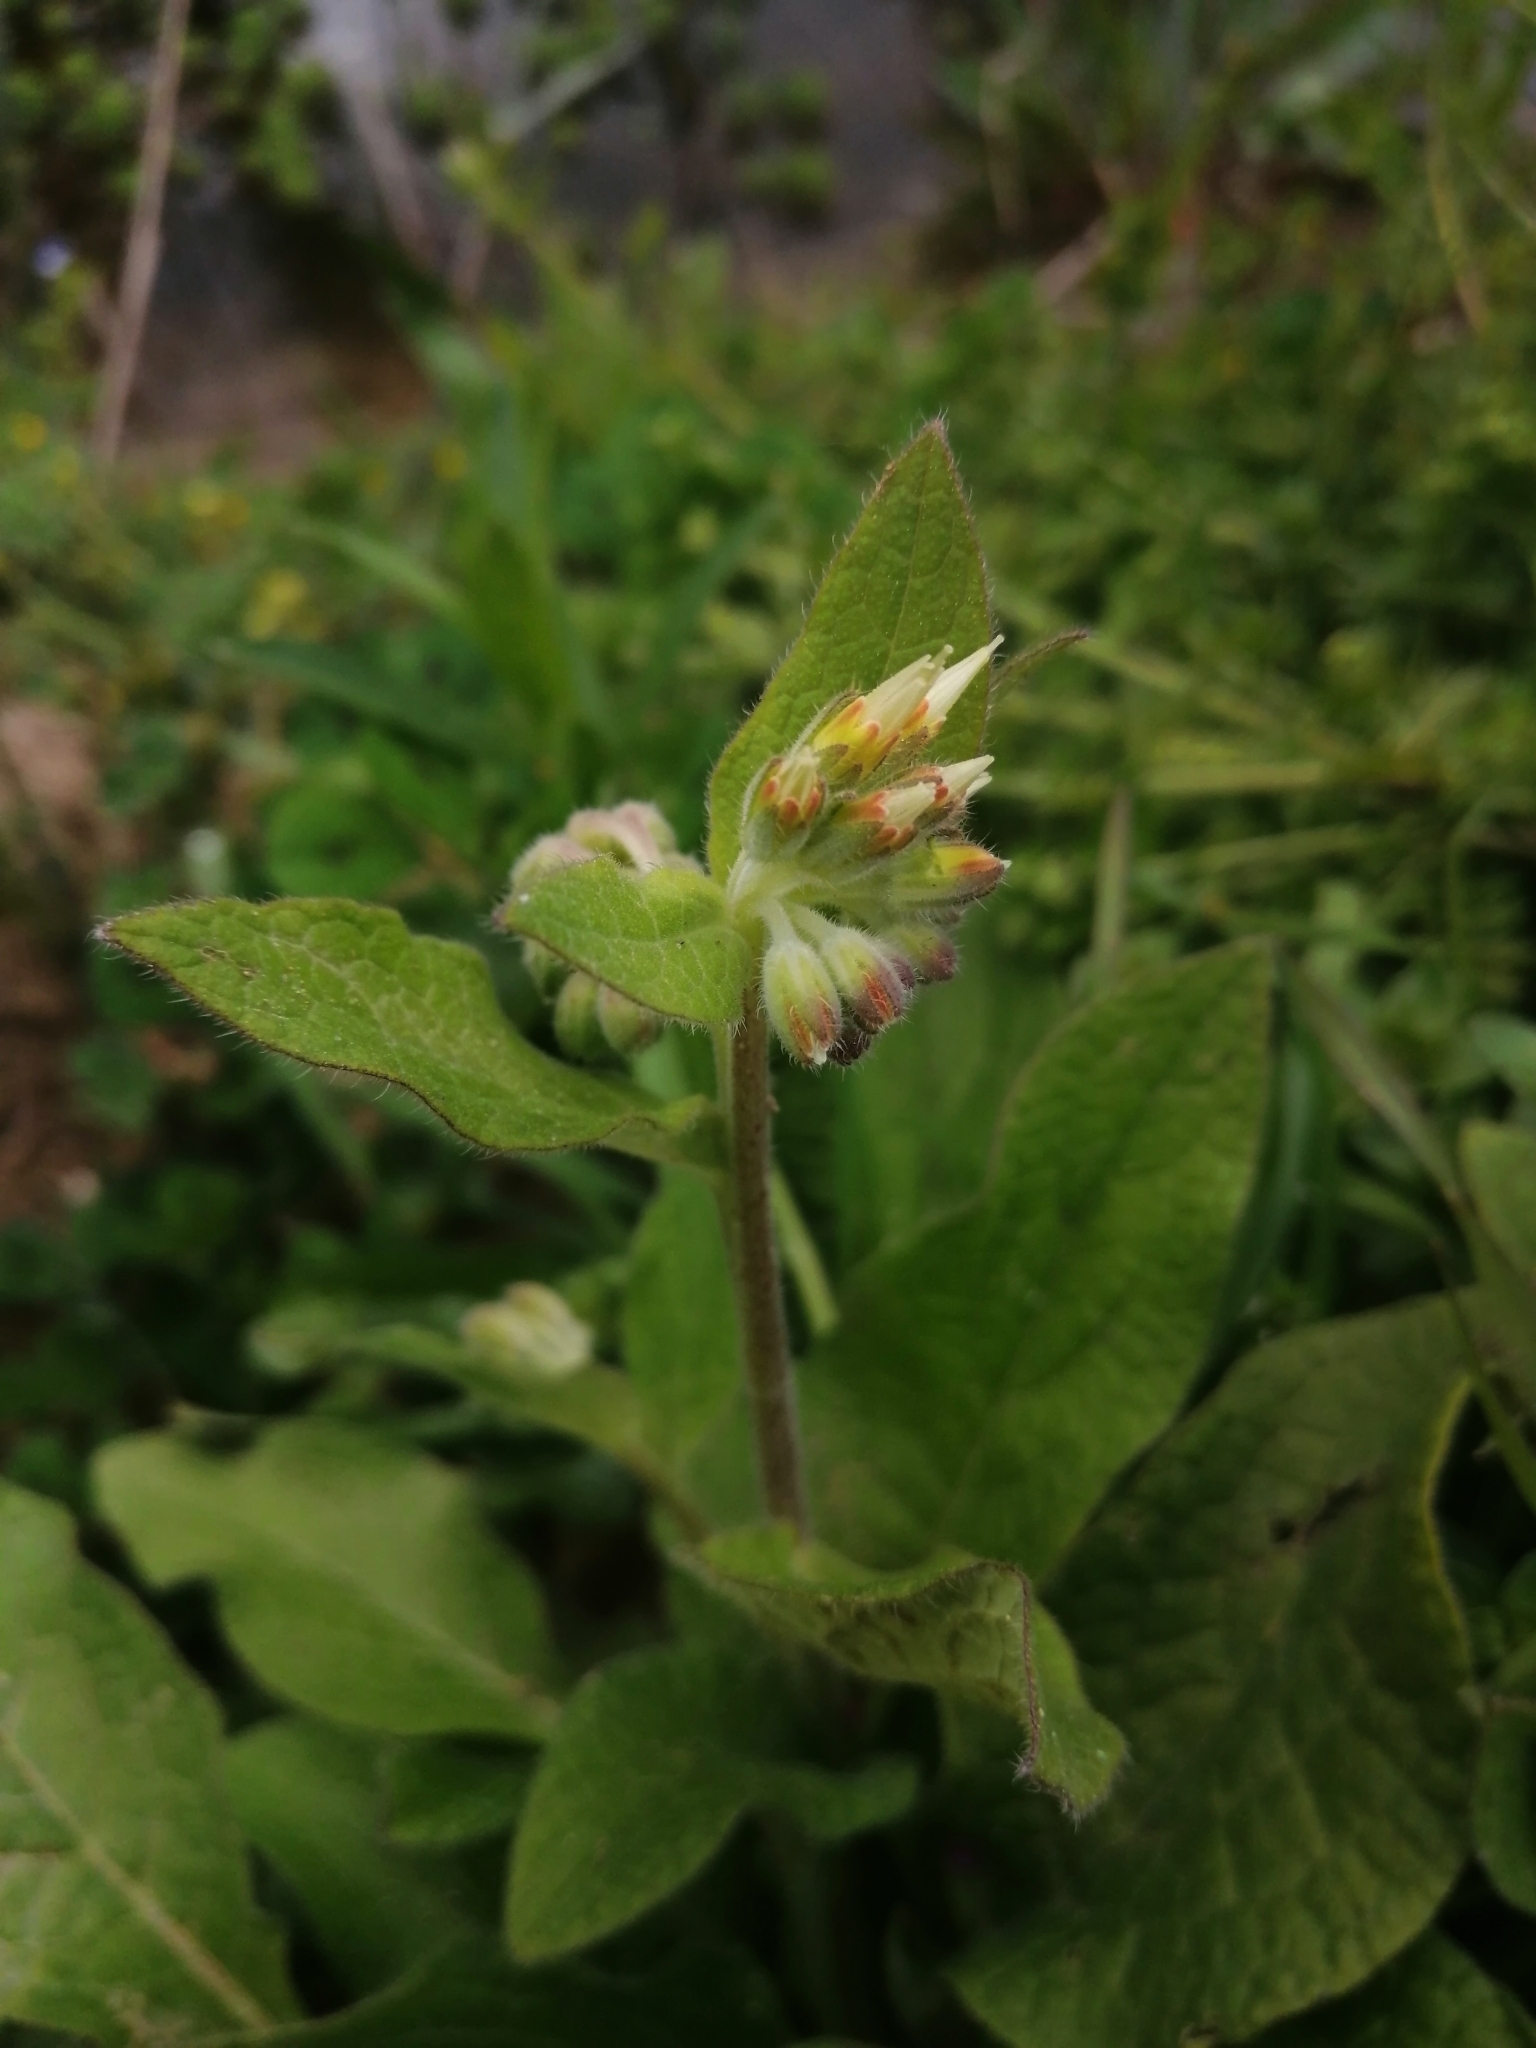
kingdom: Plantae
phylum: Tracheophyta
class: Magnoliopsida
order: Boraginales
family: Boraginaceae
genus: Symphytum
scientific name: Symphytum bulbosum
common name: Bulbous comfrey
